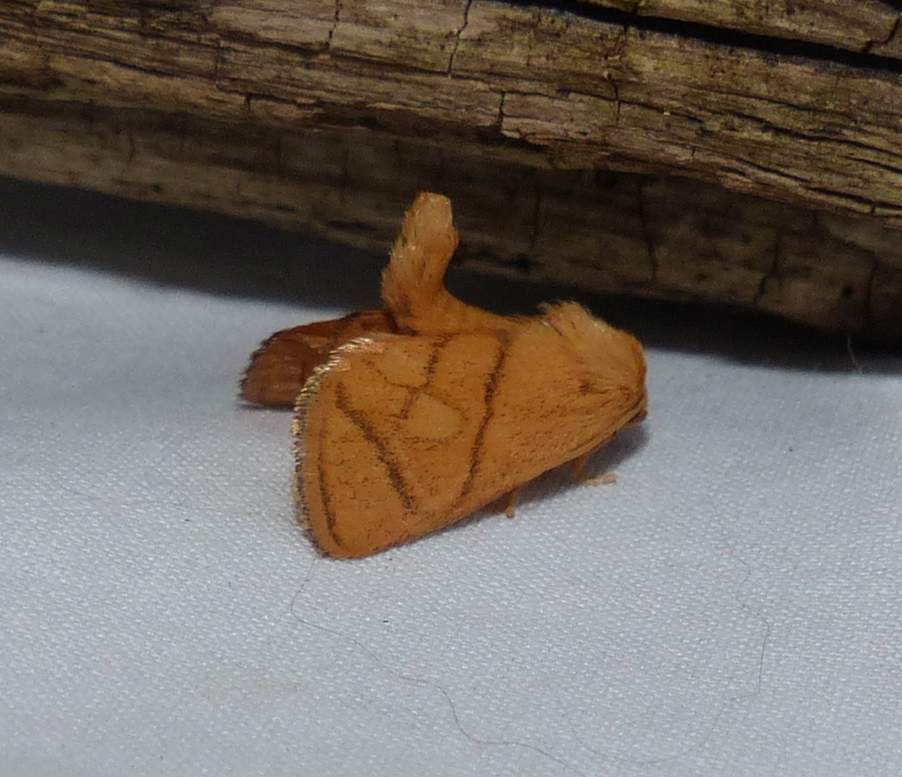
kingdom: Animalia
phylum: Arthropoda
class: Insecta
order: Lepidoptera
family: Limacodidae
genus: Apoda
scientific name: Apoda y-inversa
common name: Yellow-collared slug moth
